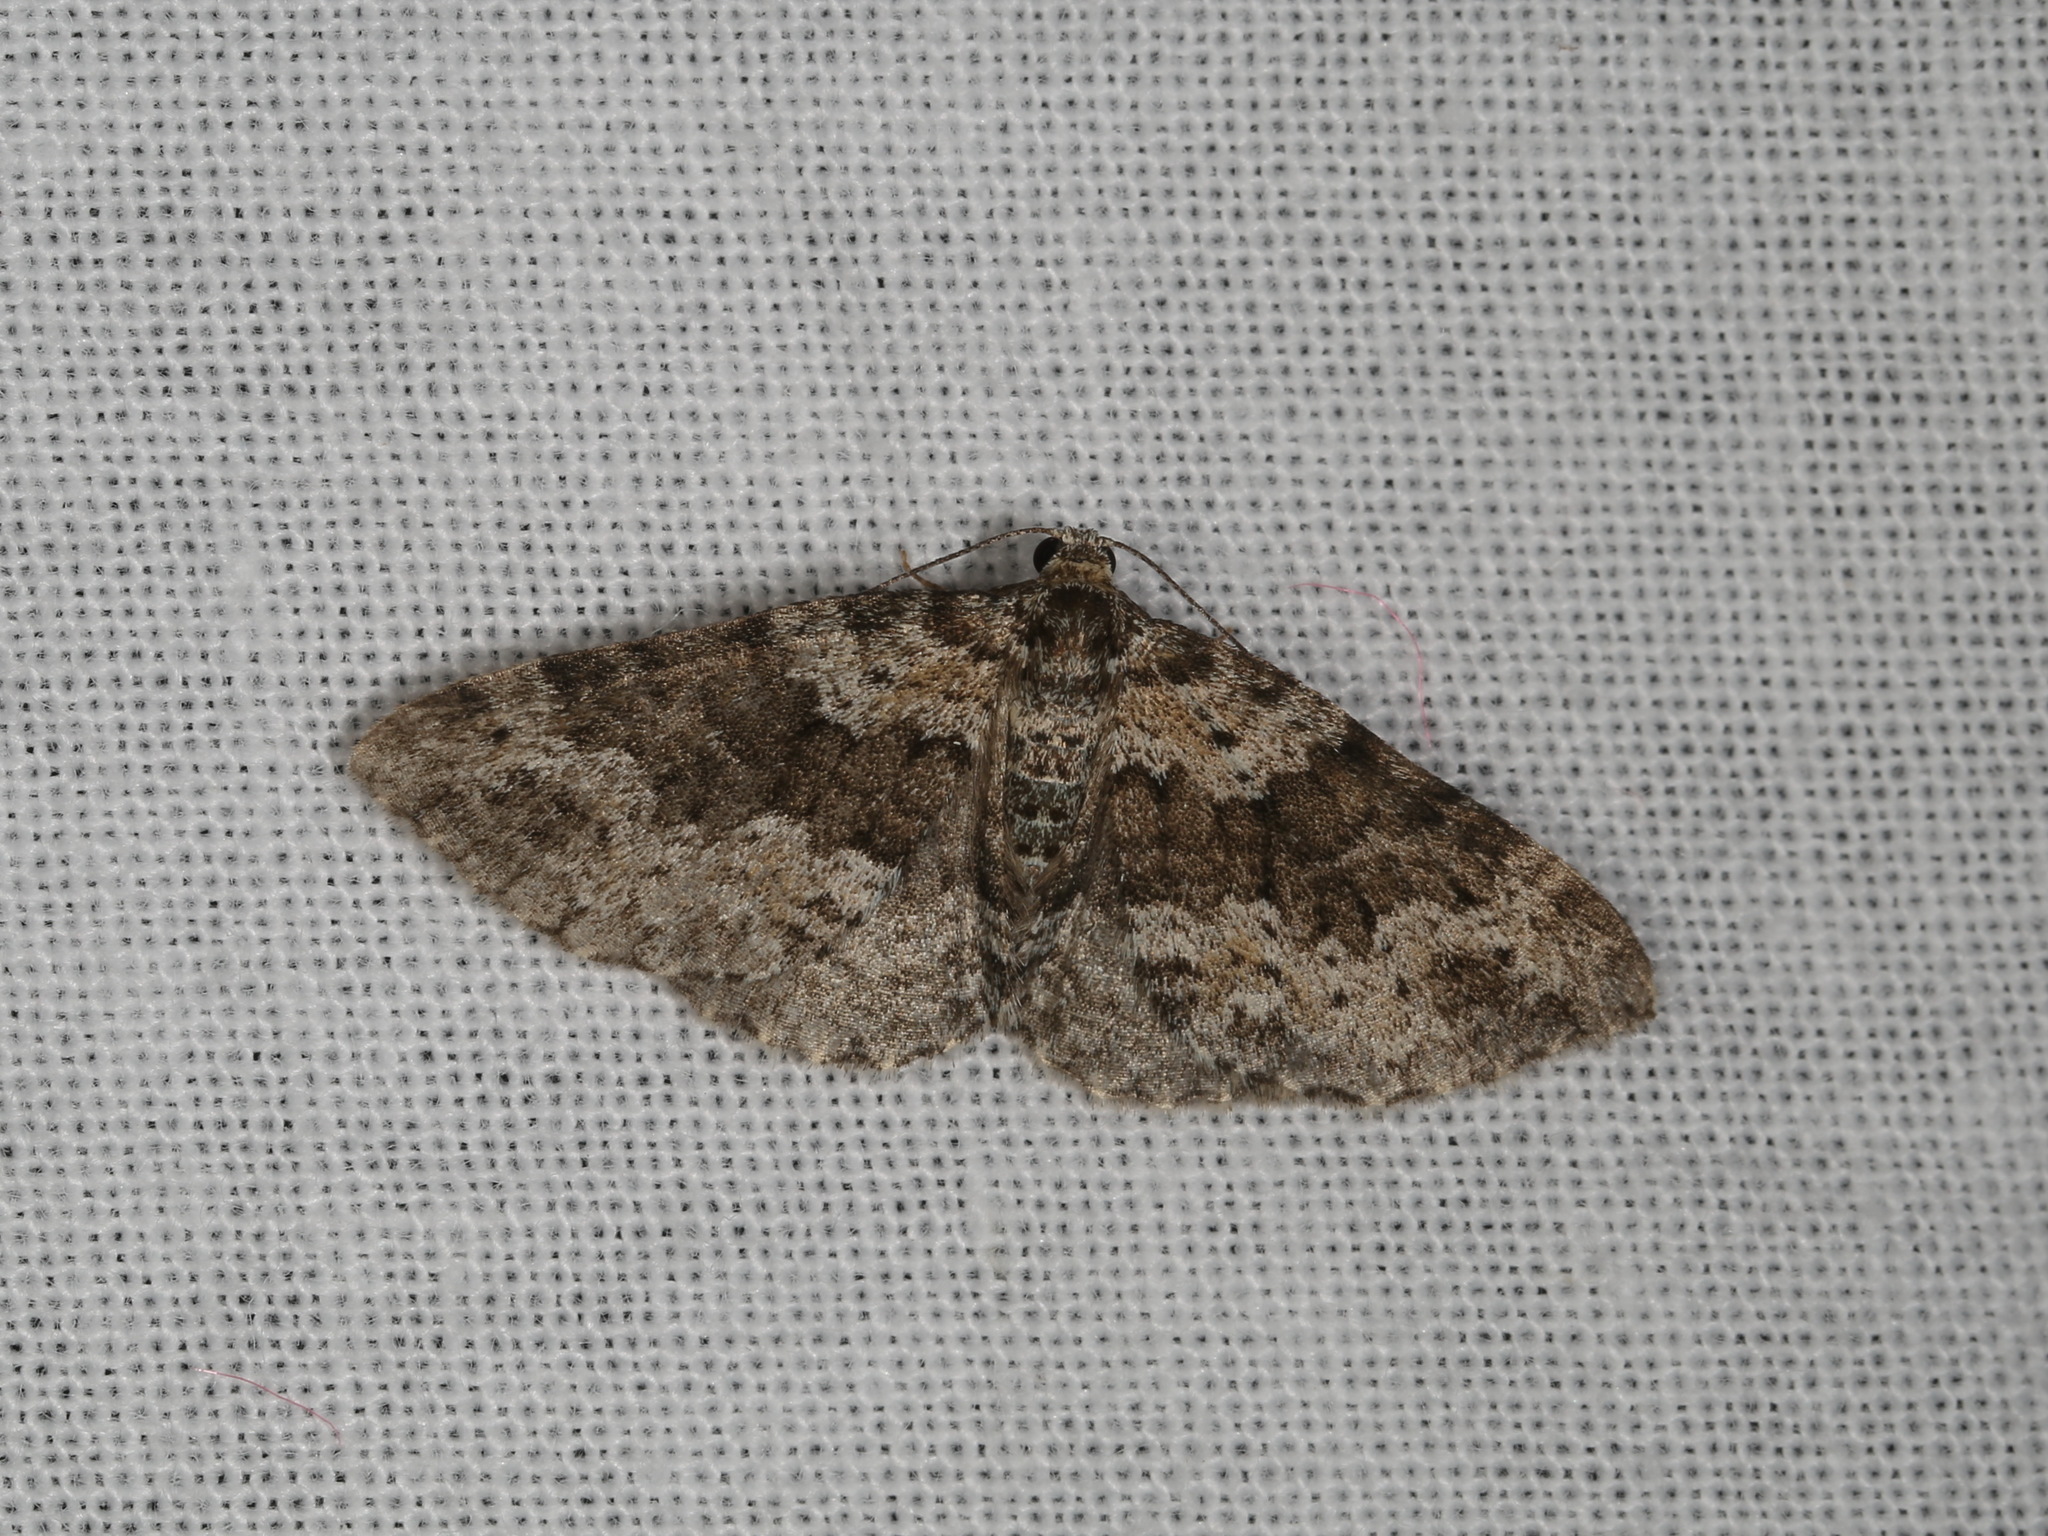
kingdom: Animalia
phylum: Arthropoda
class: Insecta
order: Lepidoptera
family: Geometridae
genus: Aponotoreas
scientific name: Aponotoreas dascia
